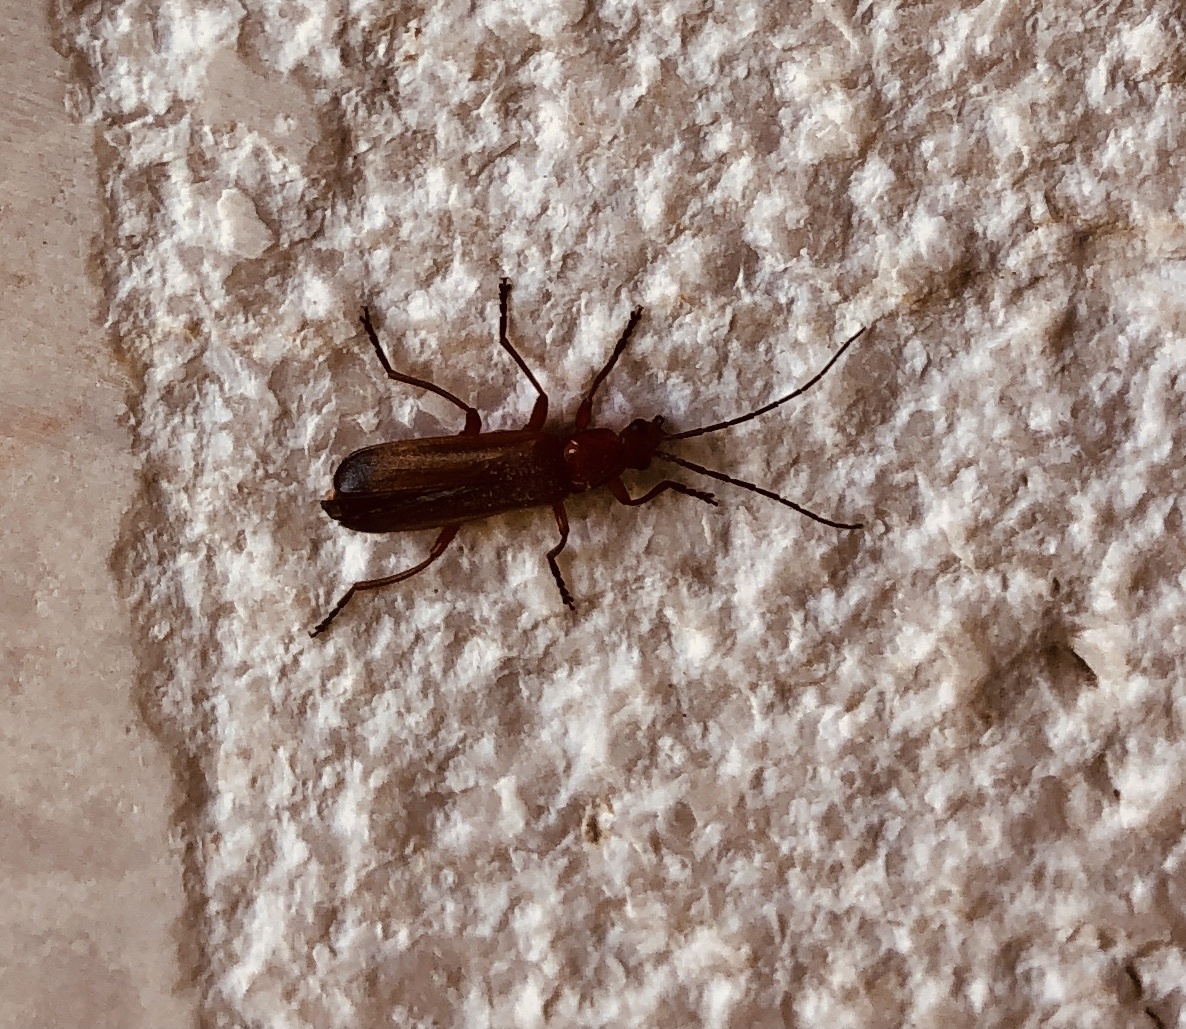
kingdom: Animalia
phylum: Arthropoda
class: Insecta
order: Coleoptera
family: Cantharidae
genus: Rhagonycha
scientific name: Rhagonycha fulva
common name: Common red soldier beetle
